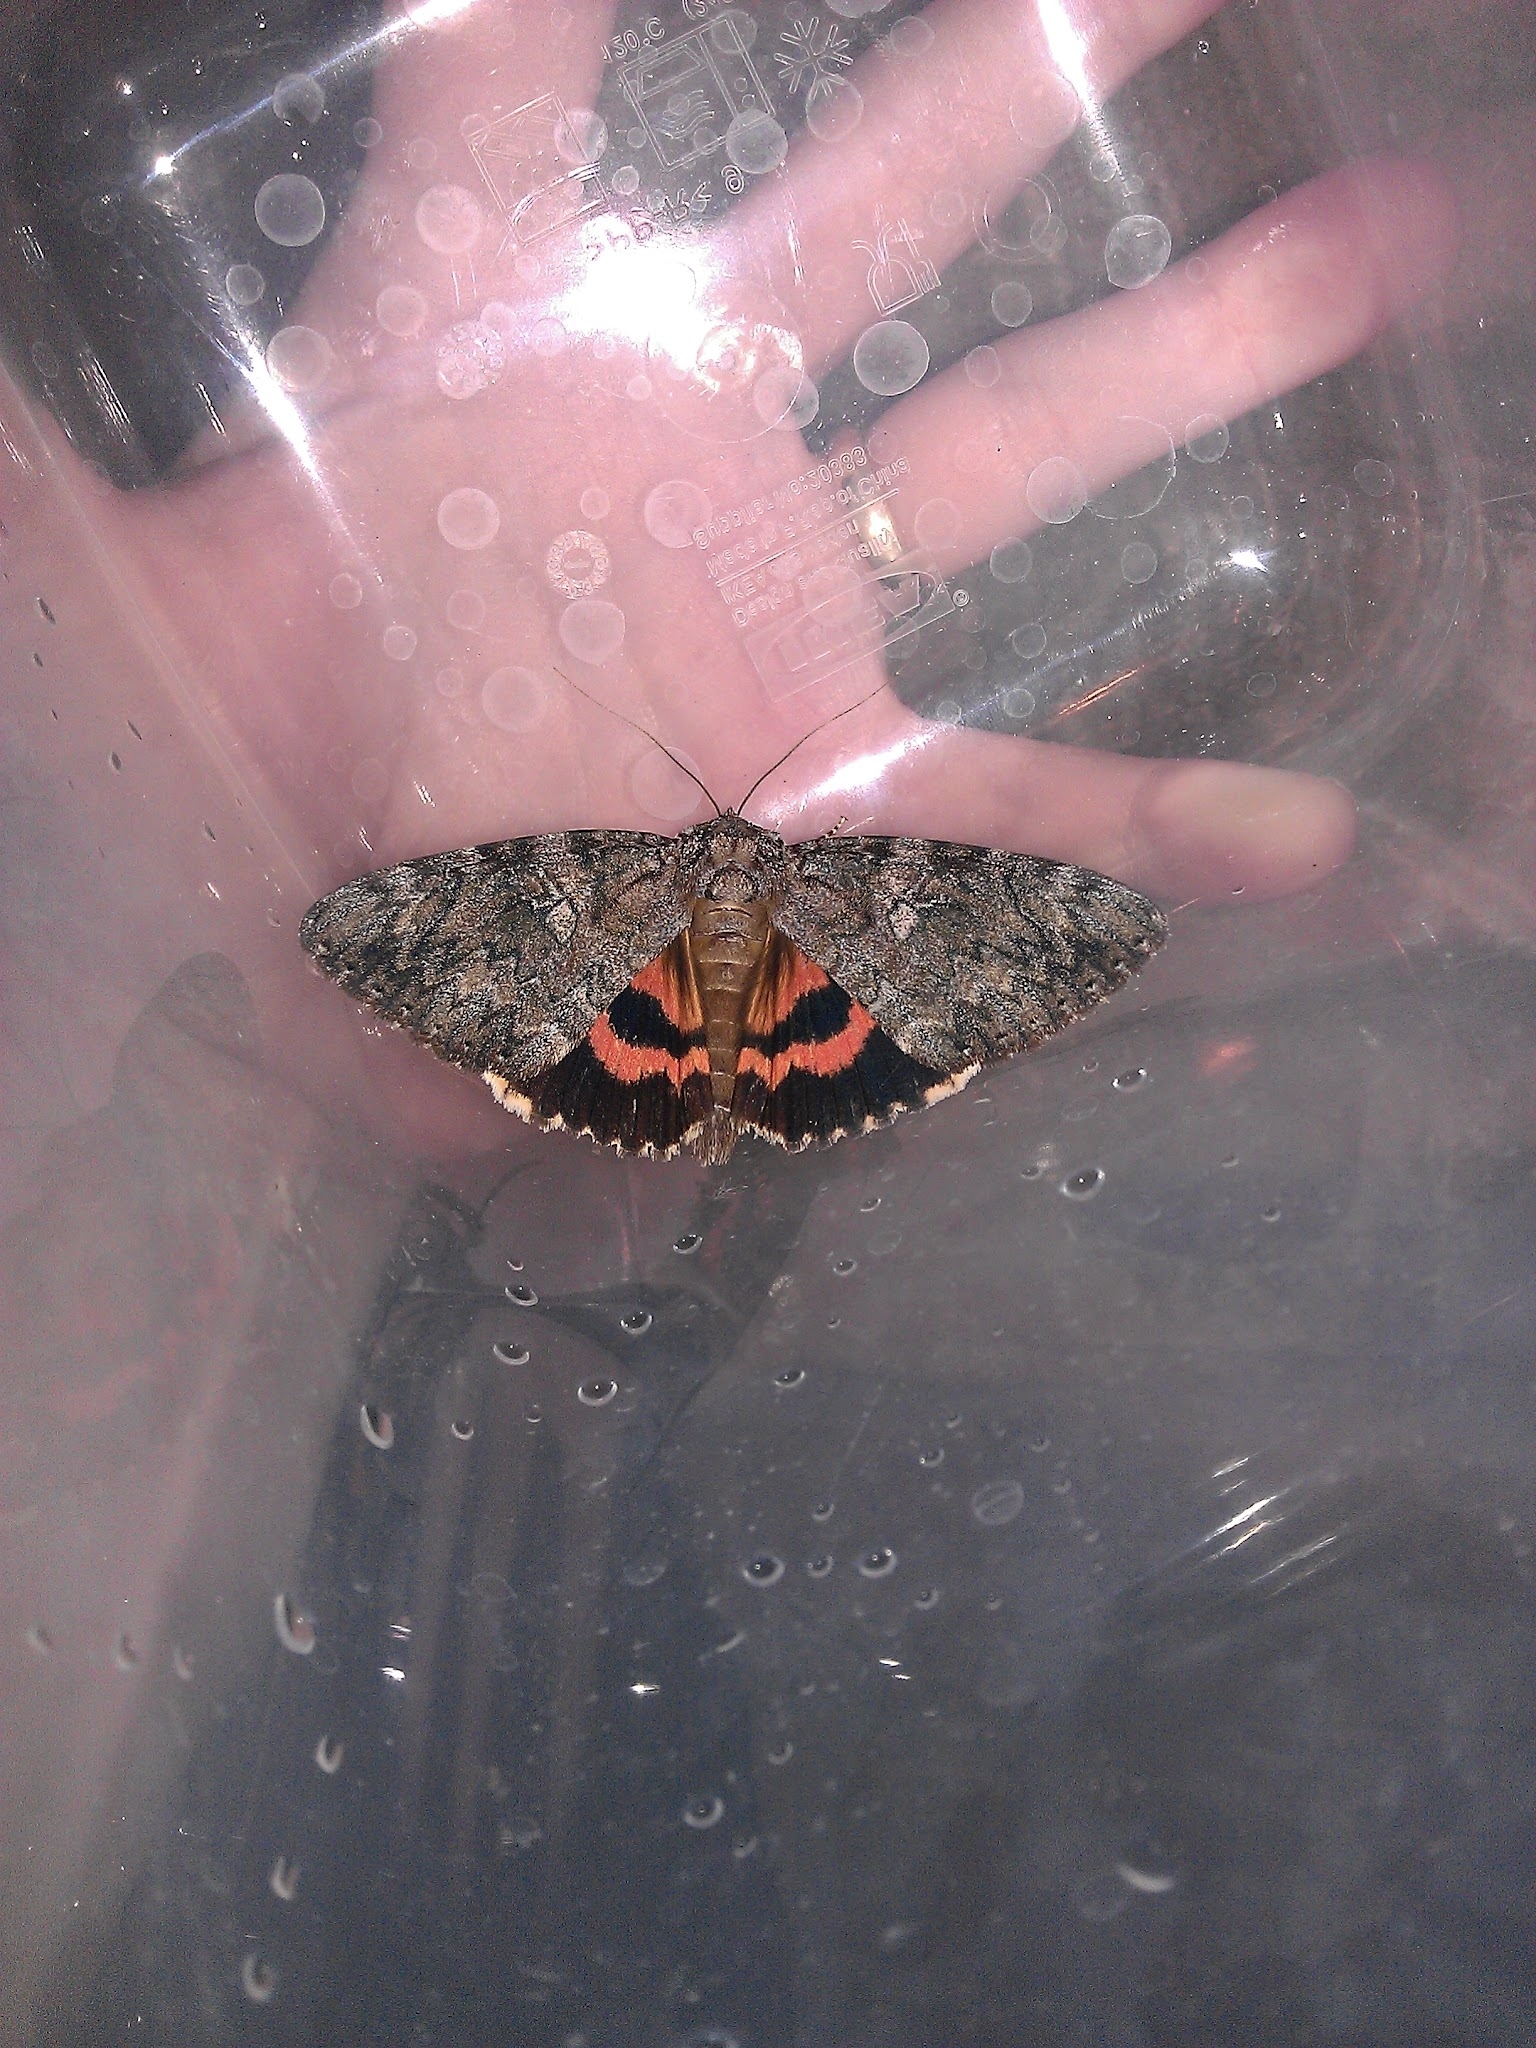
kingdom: Animalia
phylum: Arthropoda
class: Insecta
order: Lepidoptera
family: Erebidae
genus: Catocala
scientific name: Catocala umbrosa
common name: Umber underwing
